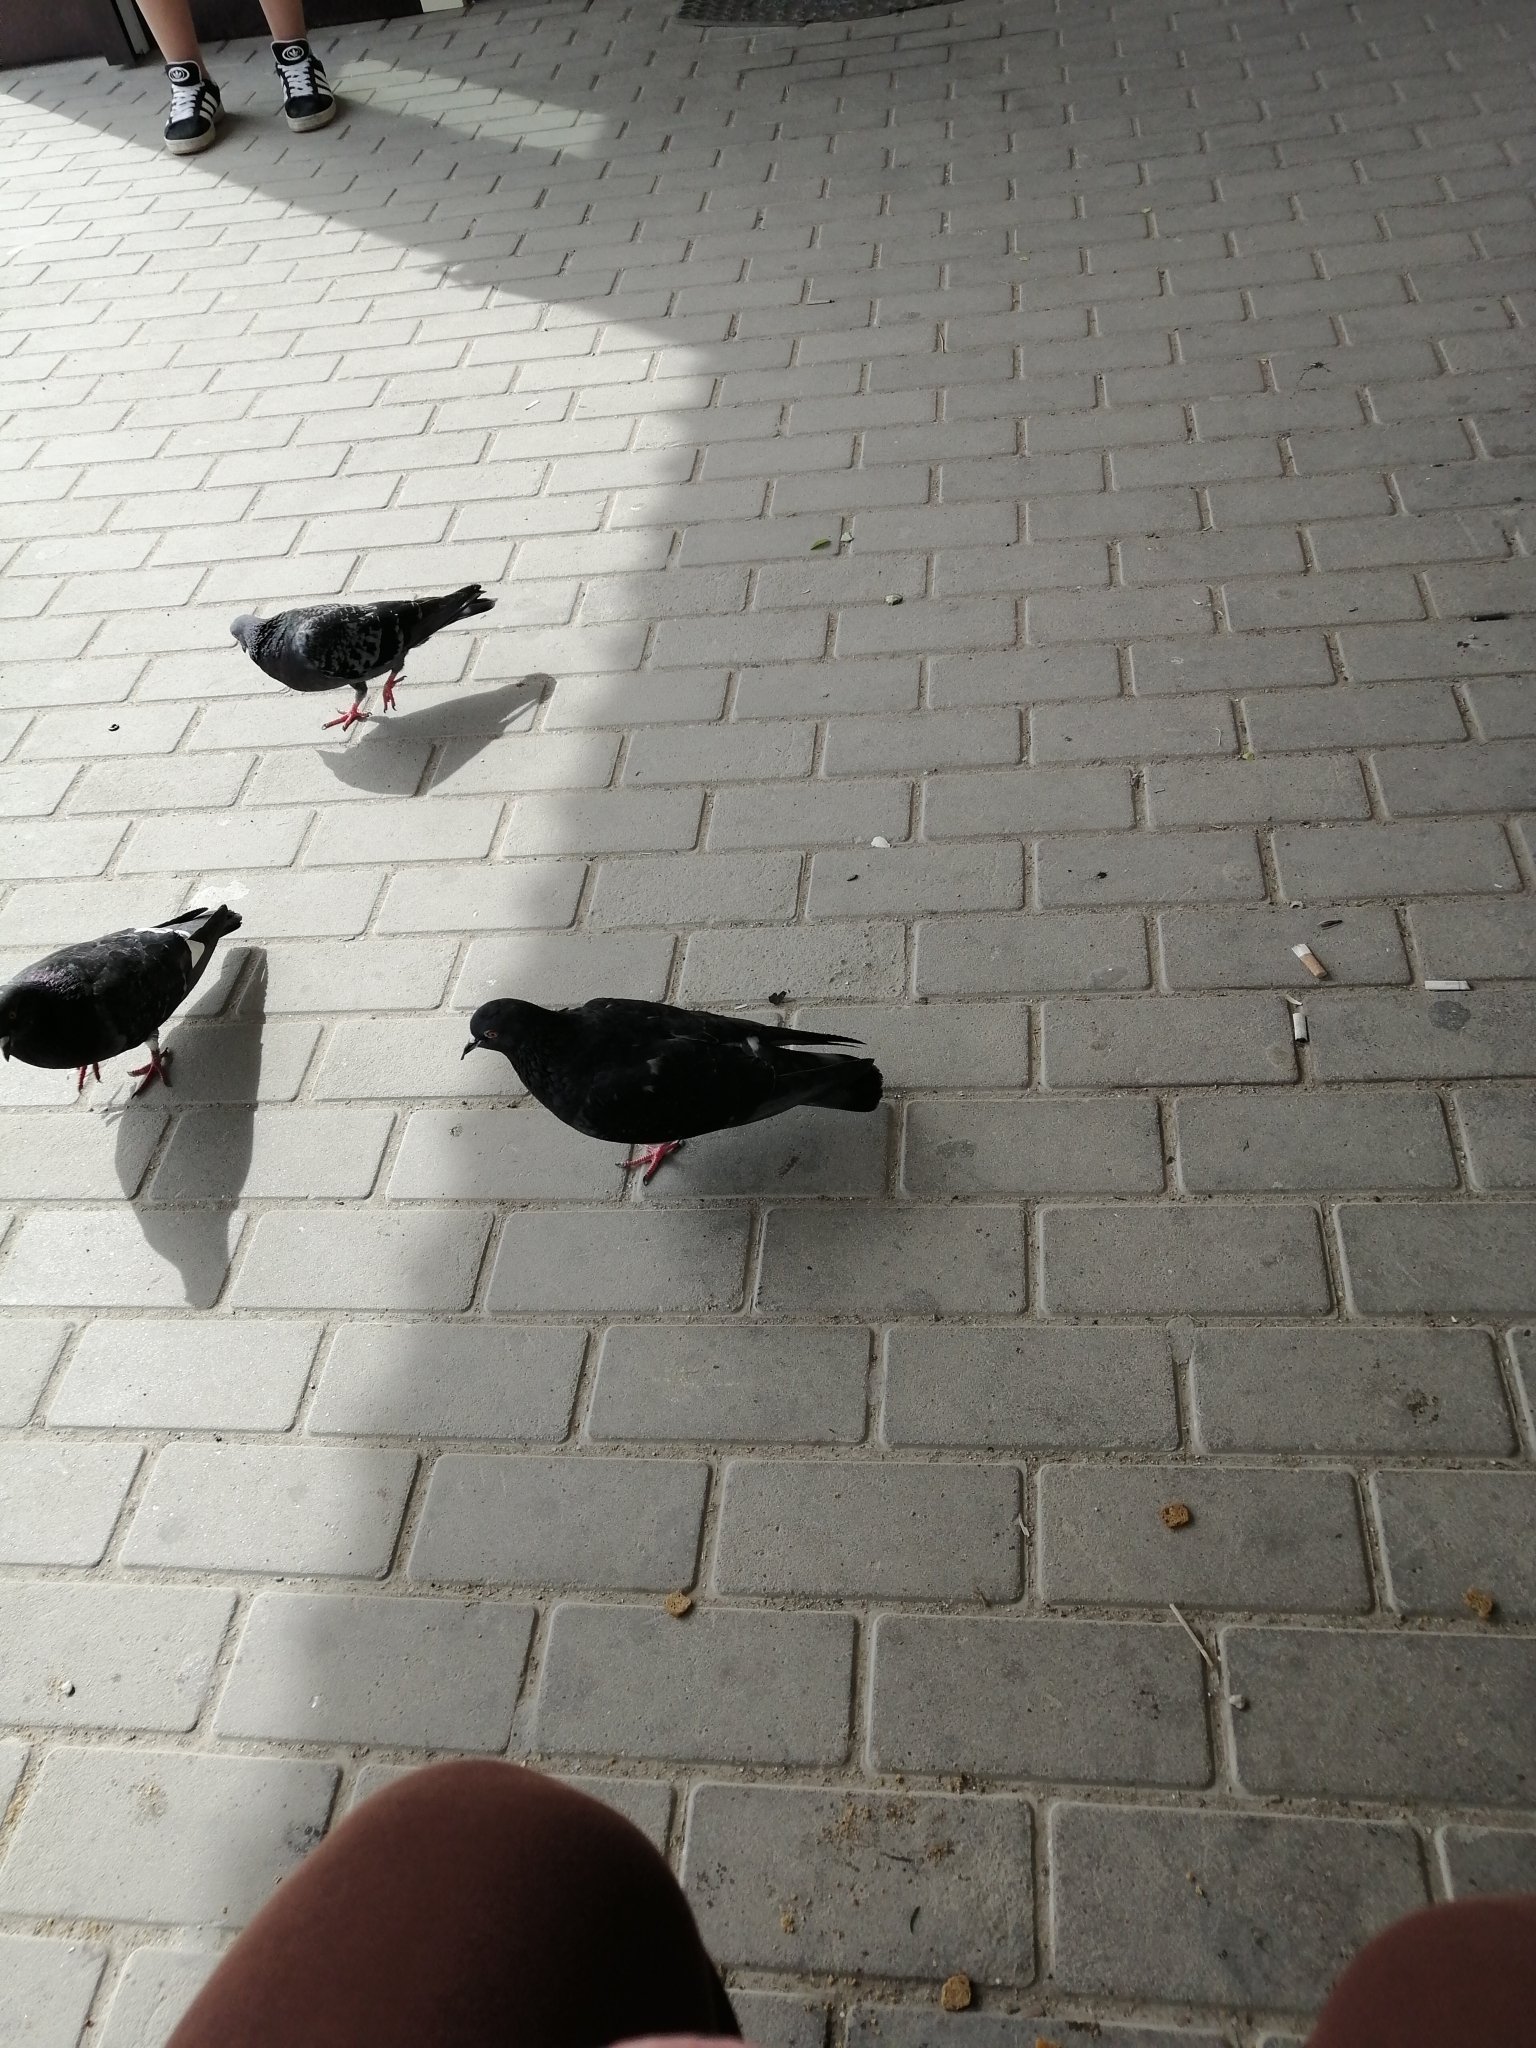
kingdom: Animalia
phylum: Chordata
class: Aves
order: Columbiformes
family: Columbidae
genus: Columba
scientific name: Columba livia
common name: Rock pigeon
